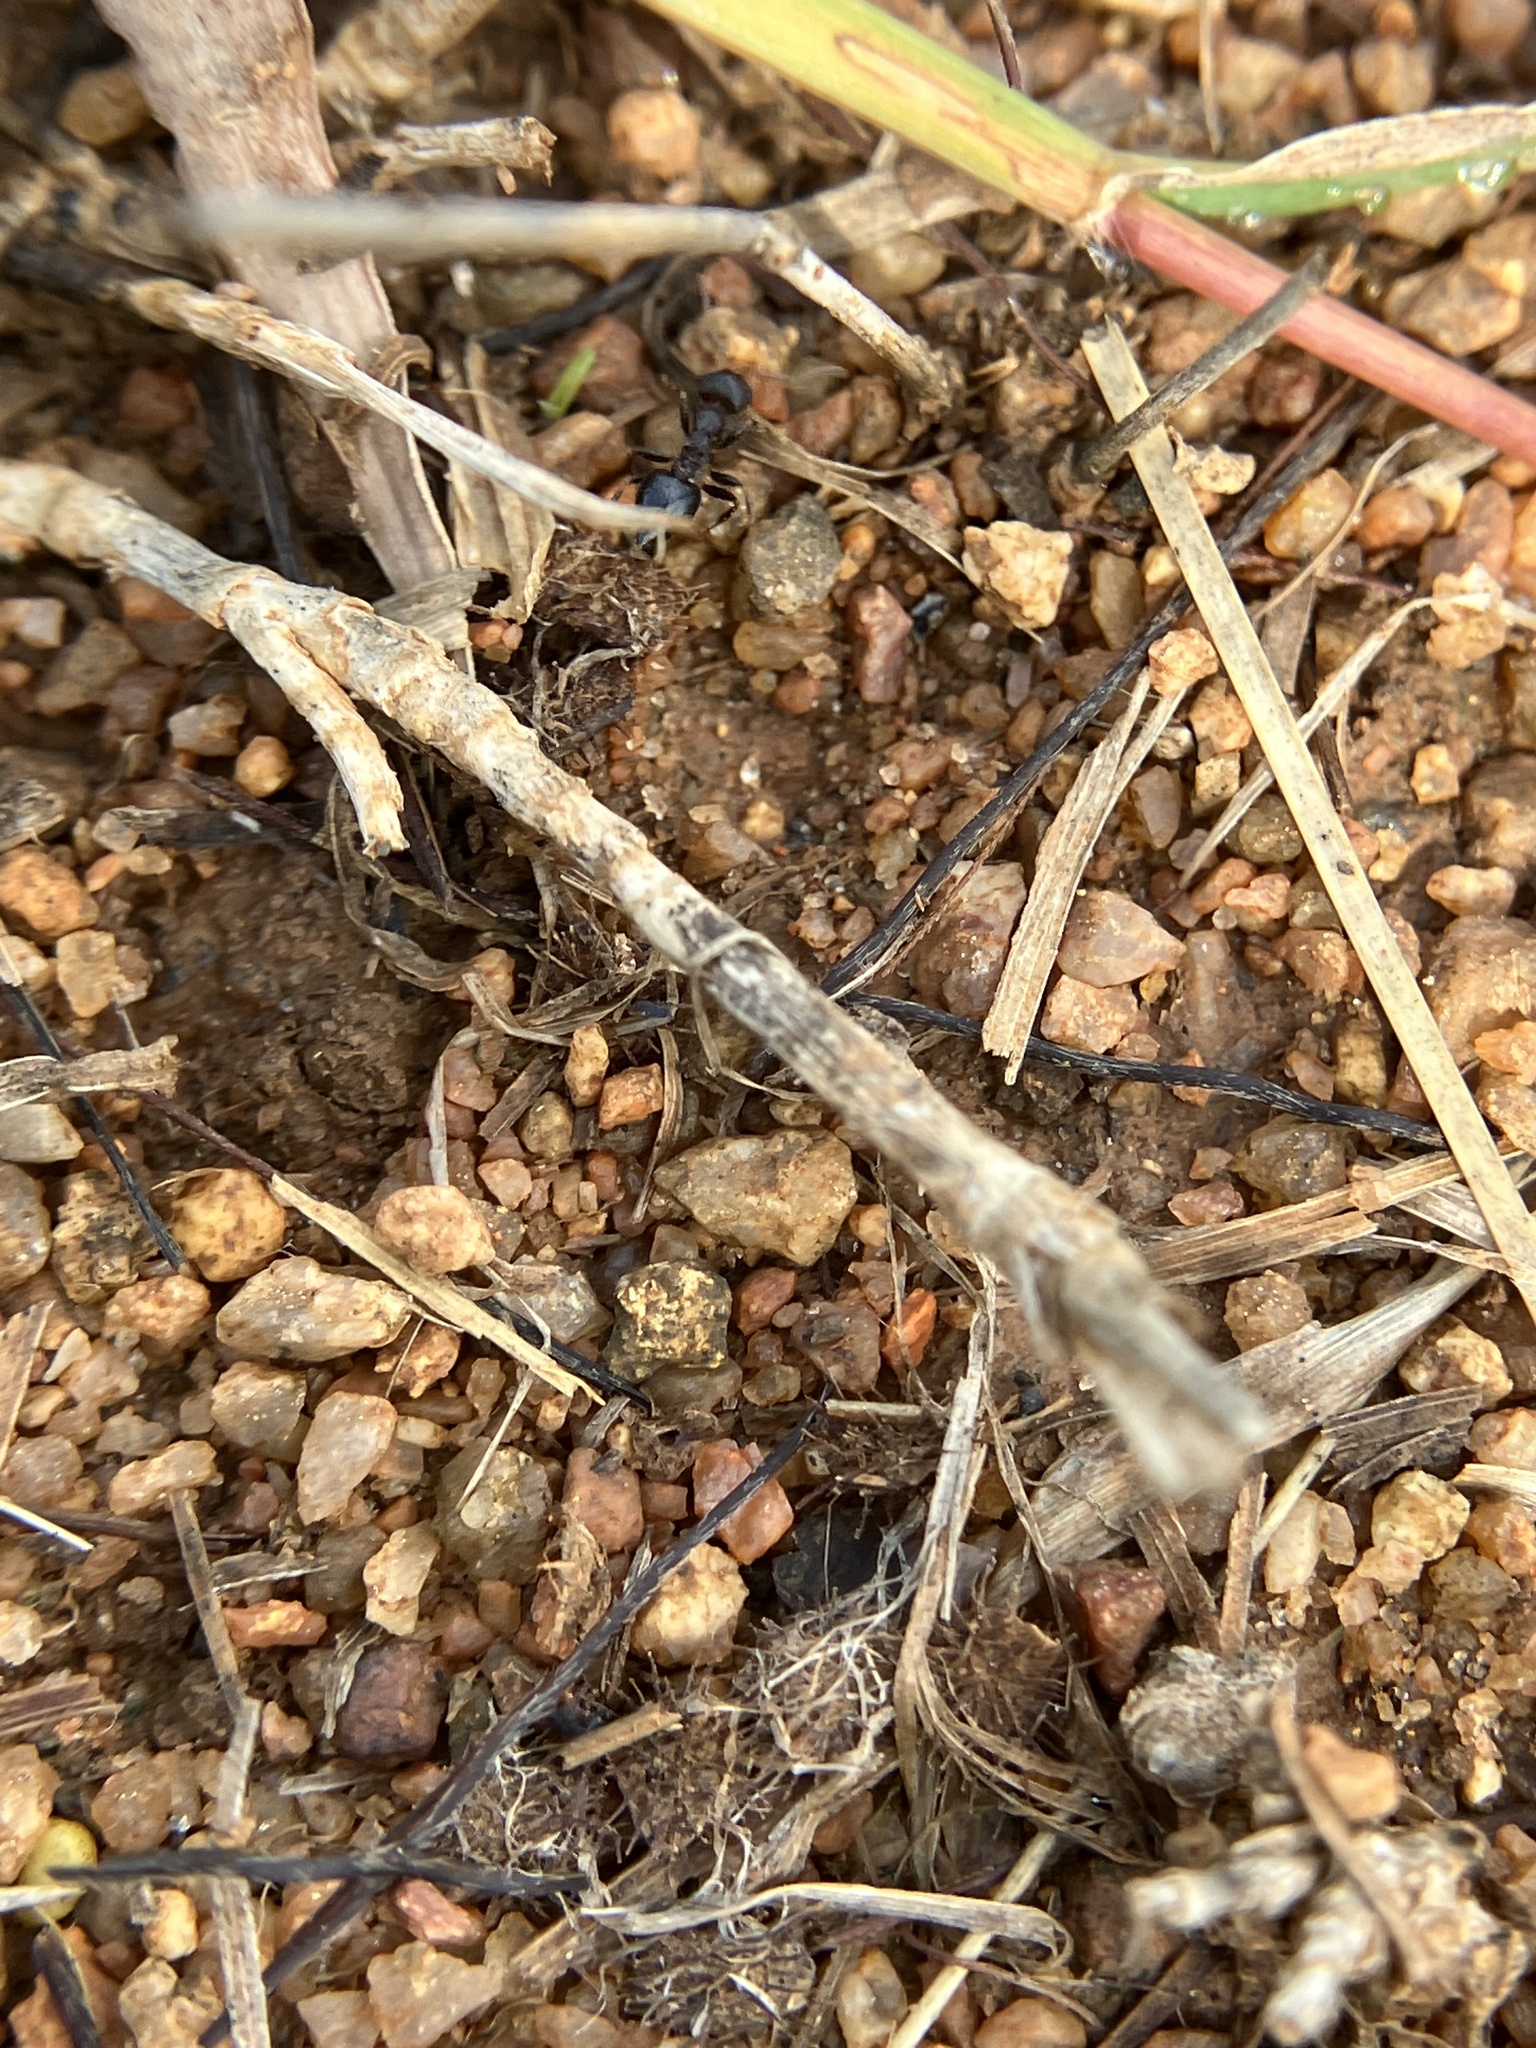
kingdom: Animalia
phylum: Arthropoda
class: Insecta
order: Hymenoptera
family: Formicidae
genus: Crematogaster
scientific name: Crematogaster rothneyi
